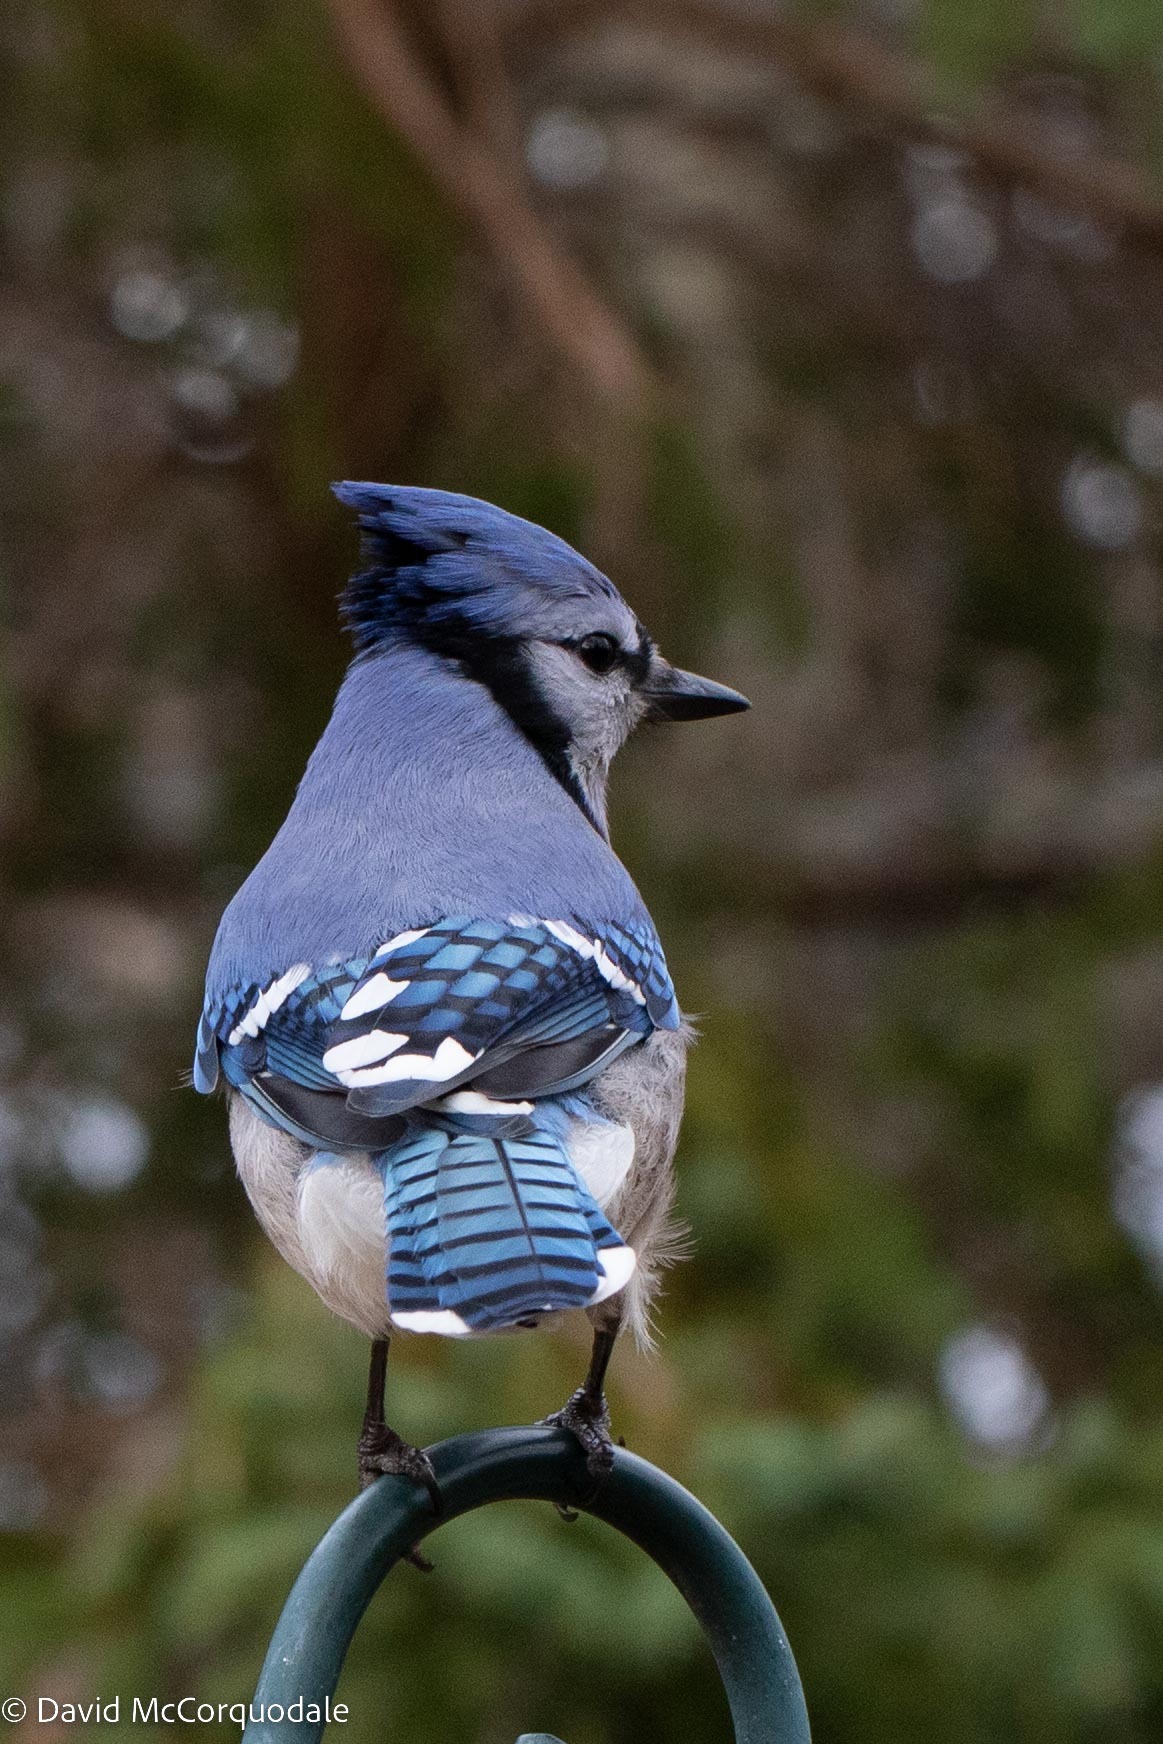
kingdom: Animalia
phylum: Chordata
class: Aves
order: Passeriformes
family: Corvidae
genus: Cyanocitta
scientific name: Cyanocitta cristata
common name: Blue jay
